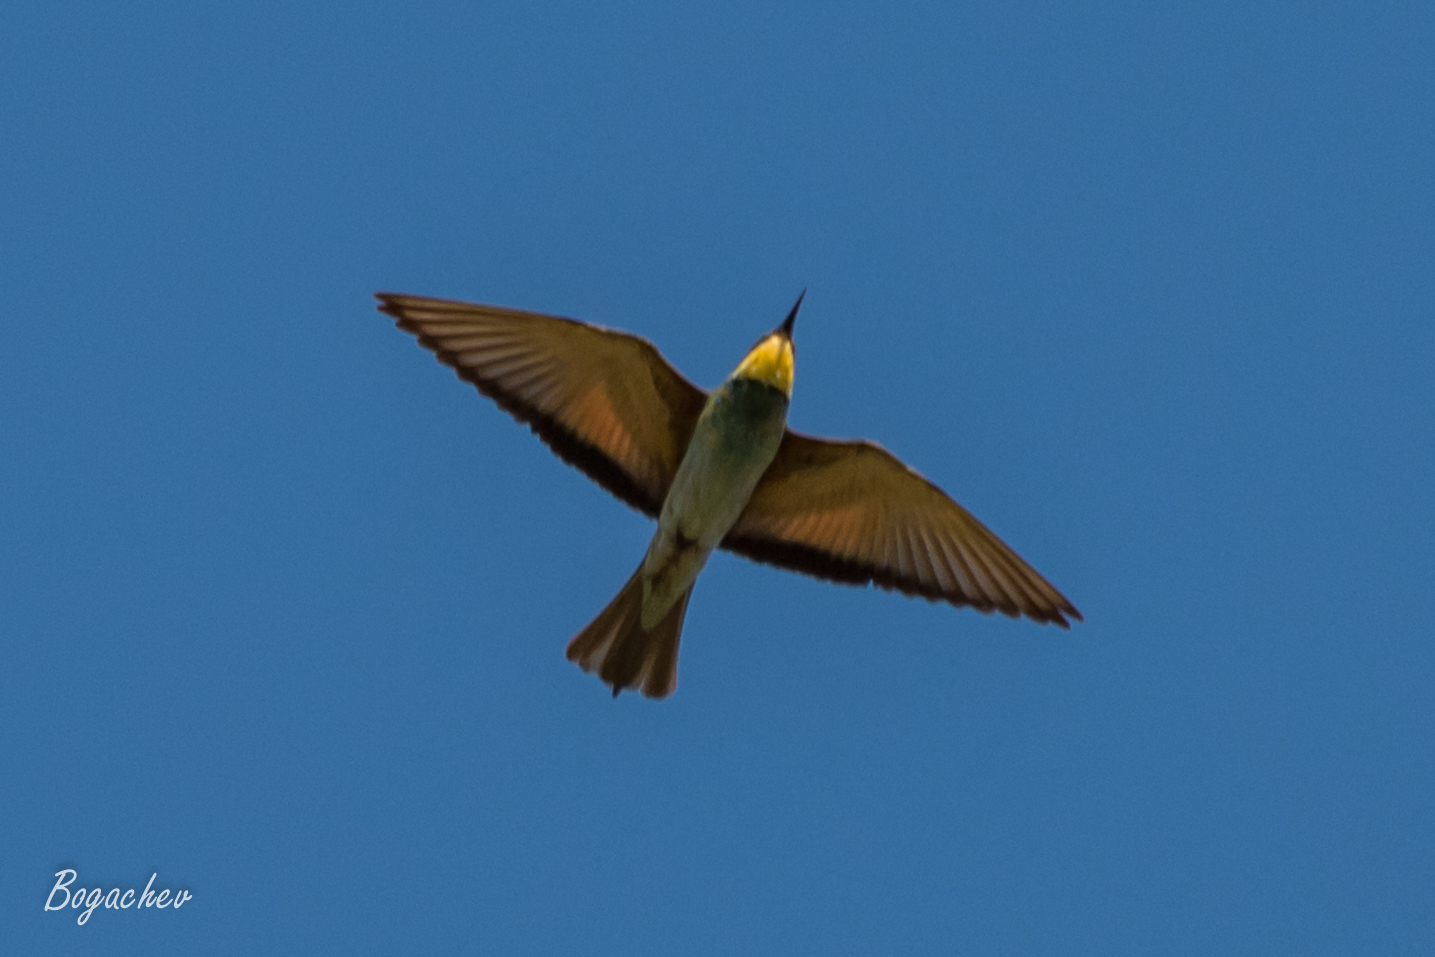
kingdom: Animalia
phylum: Chordata
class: Aves
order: Coraciiformes
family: Meropidae
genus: Merops
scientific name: Merops apiaster
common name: European bee-eater
